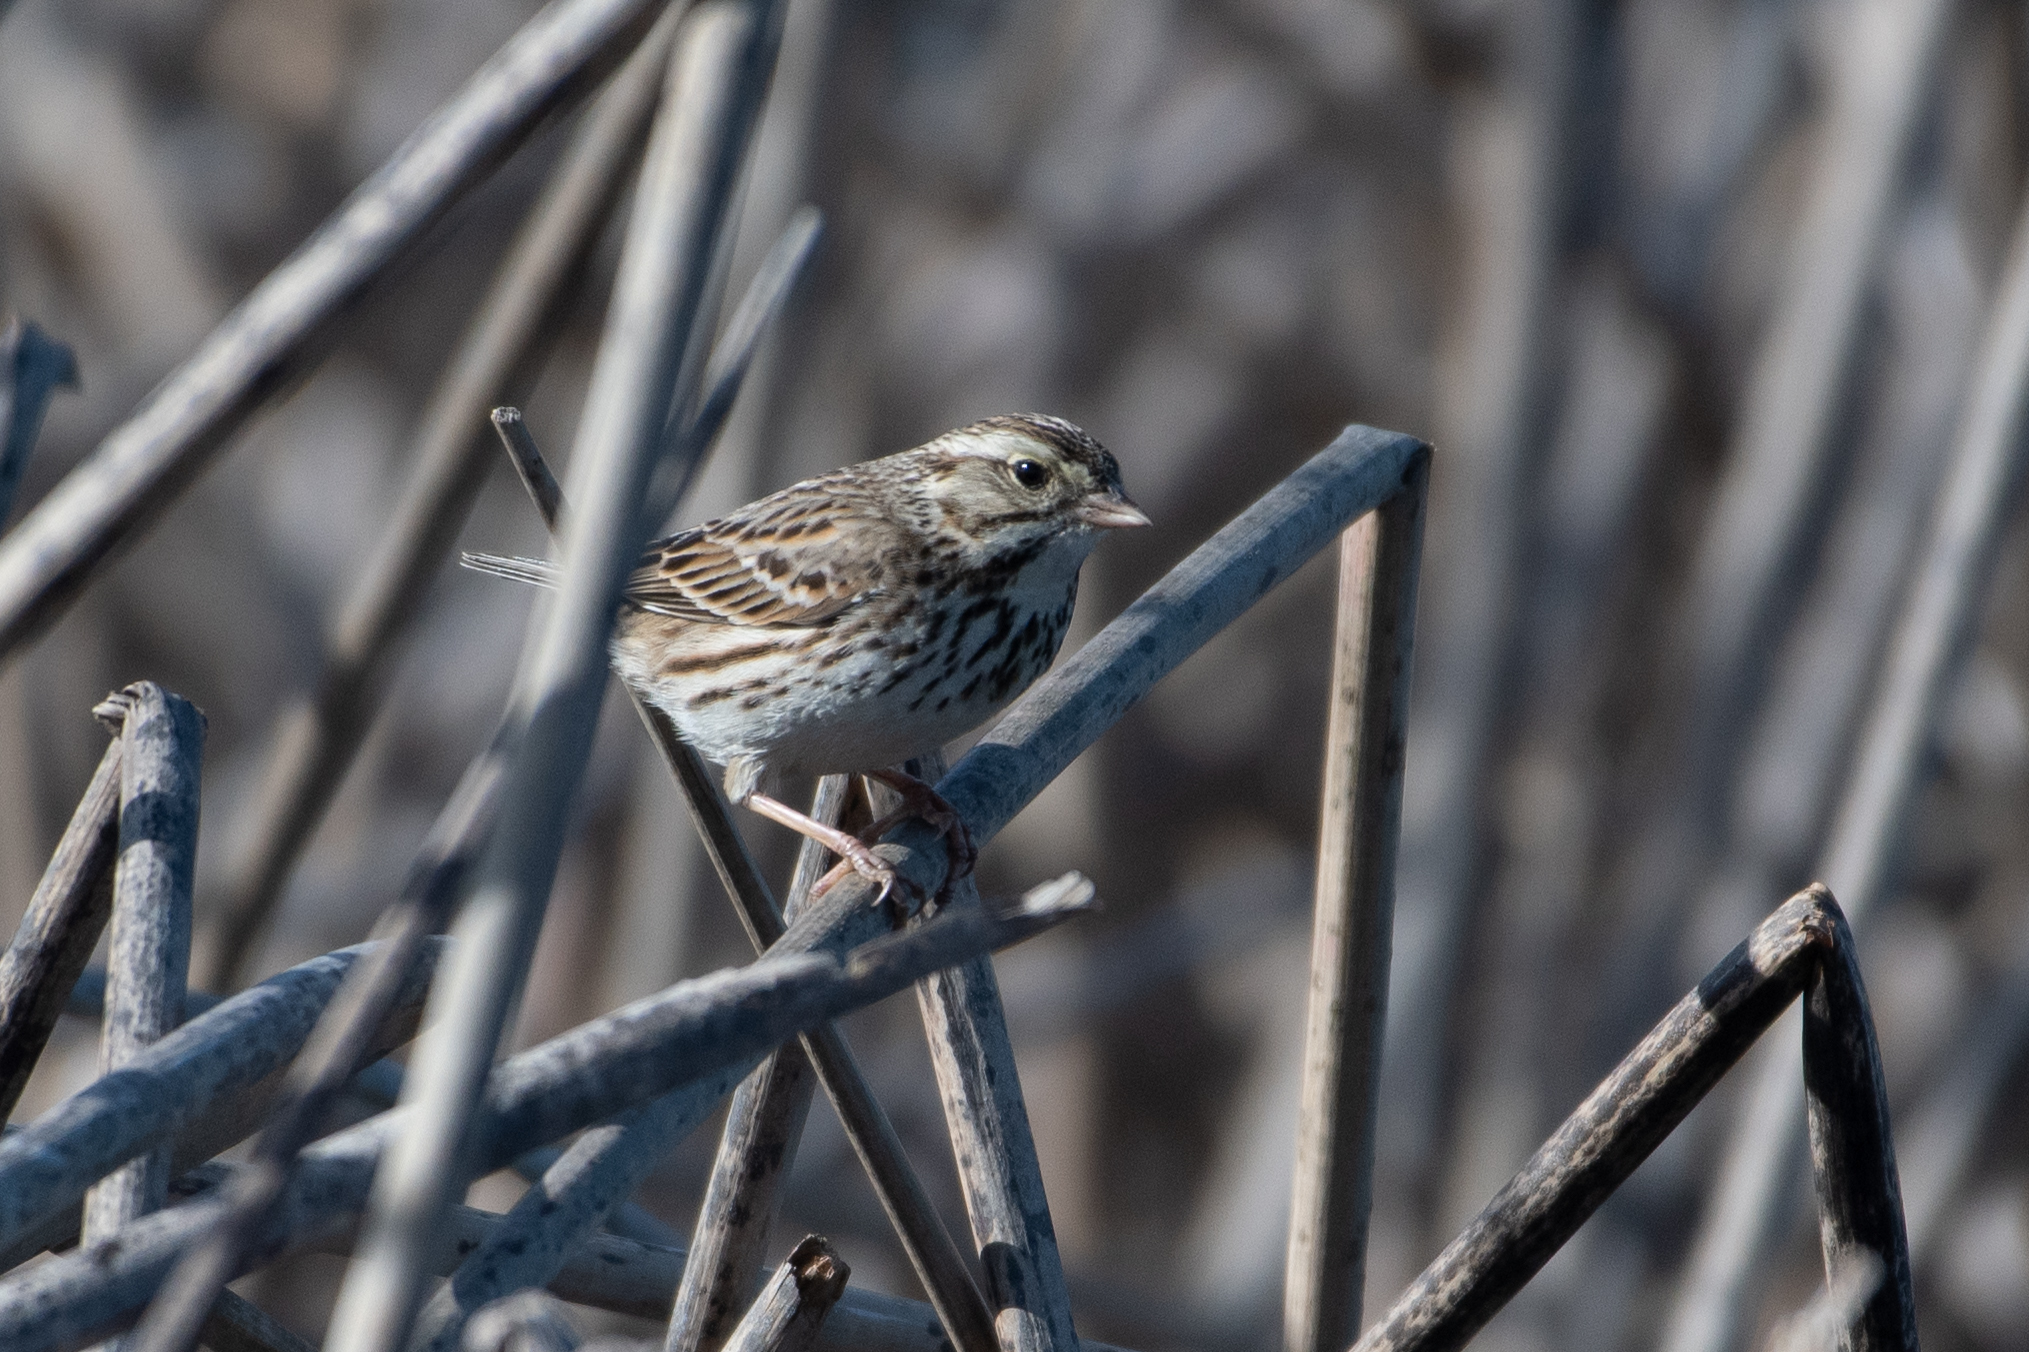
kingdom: Animalia
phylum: Chordata
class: Aves
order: Passeriformes
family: Passerellidae
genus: Passerculus
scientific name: Passerculus sandwichensis
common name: Savannah sparrow
